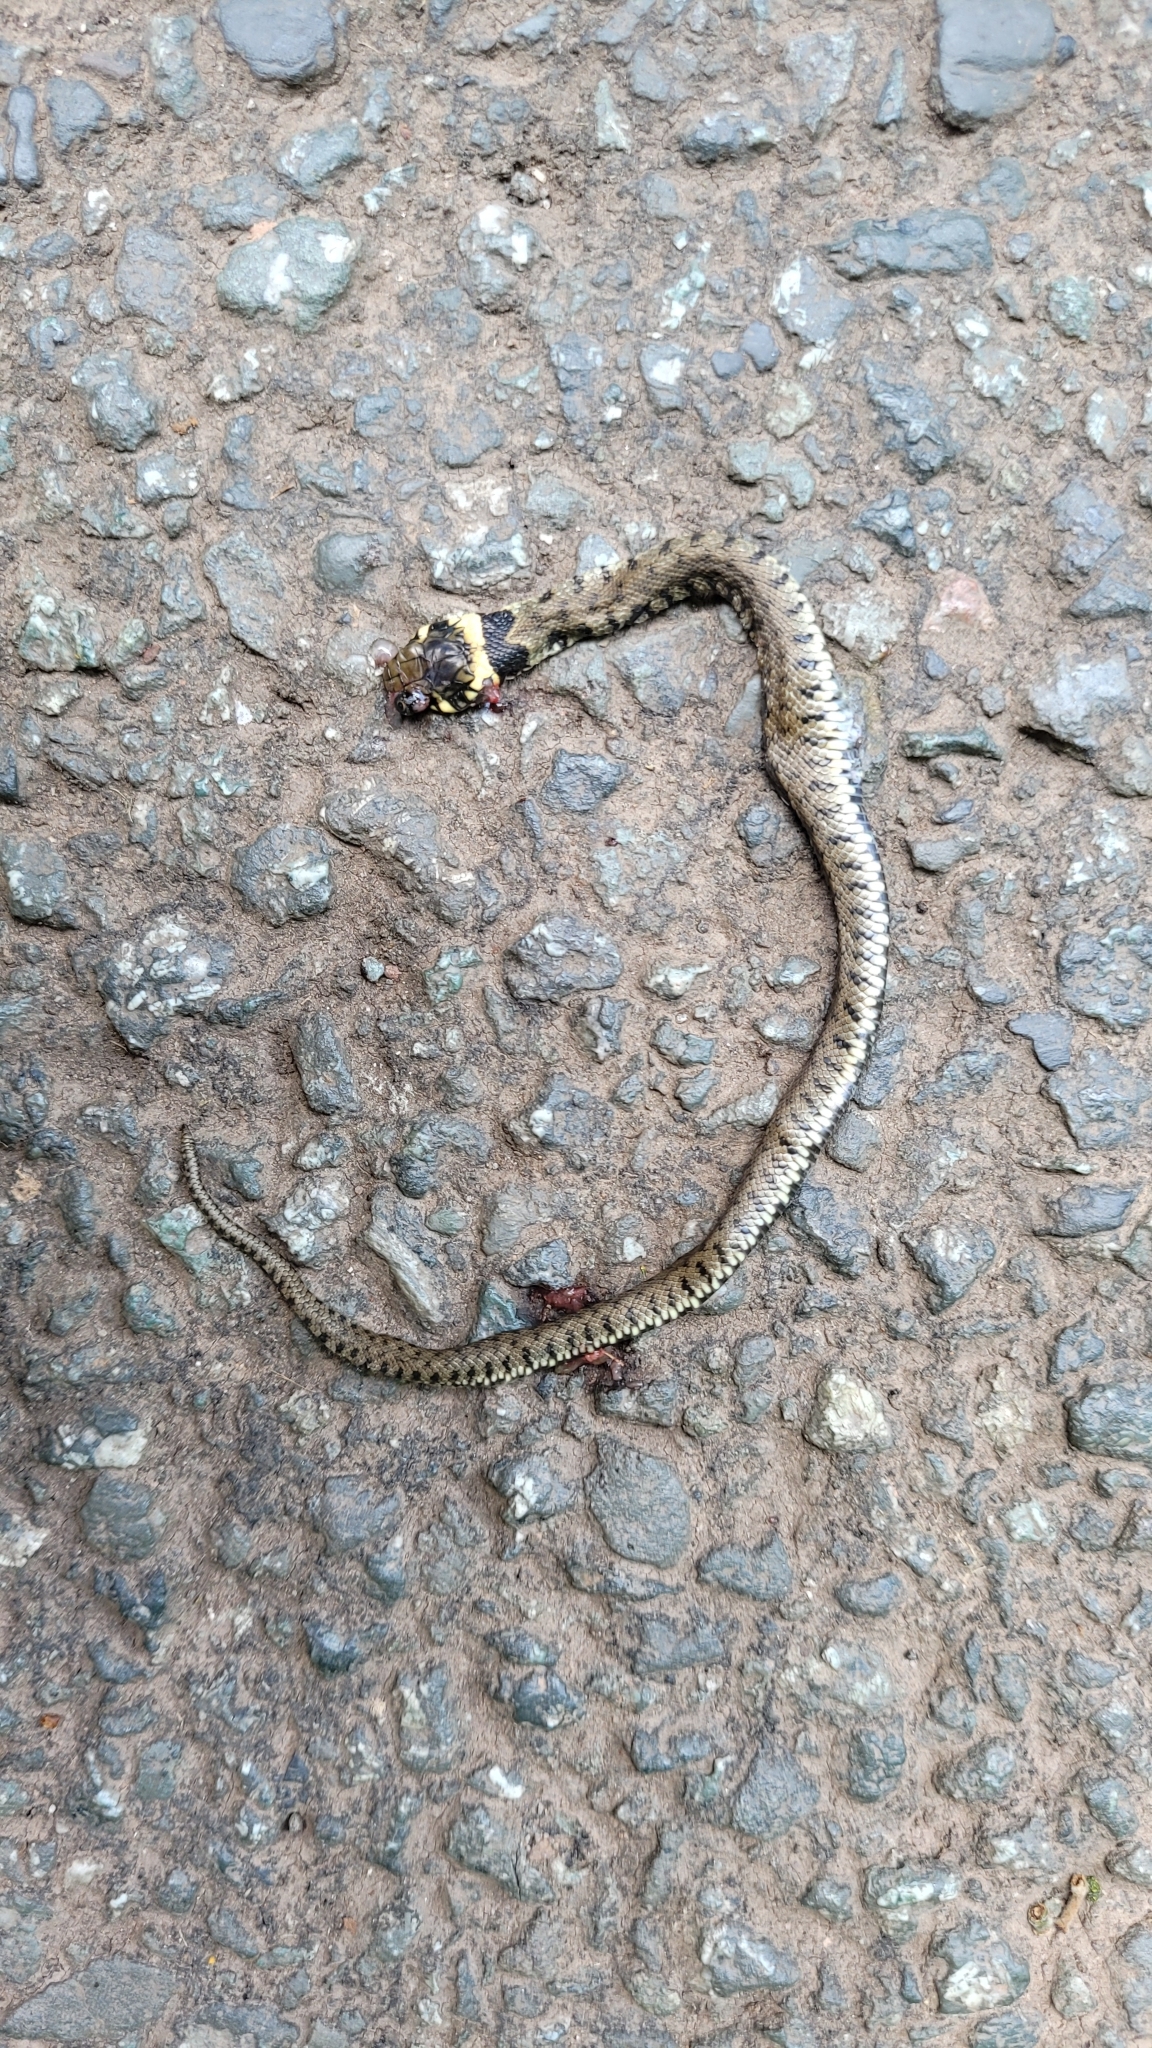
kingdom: Animalia
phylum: Chordata
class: Squamata
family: Colubridae
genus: Natrix
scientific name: Natrix helvetica
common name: Banded grass snake
